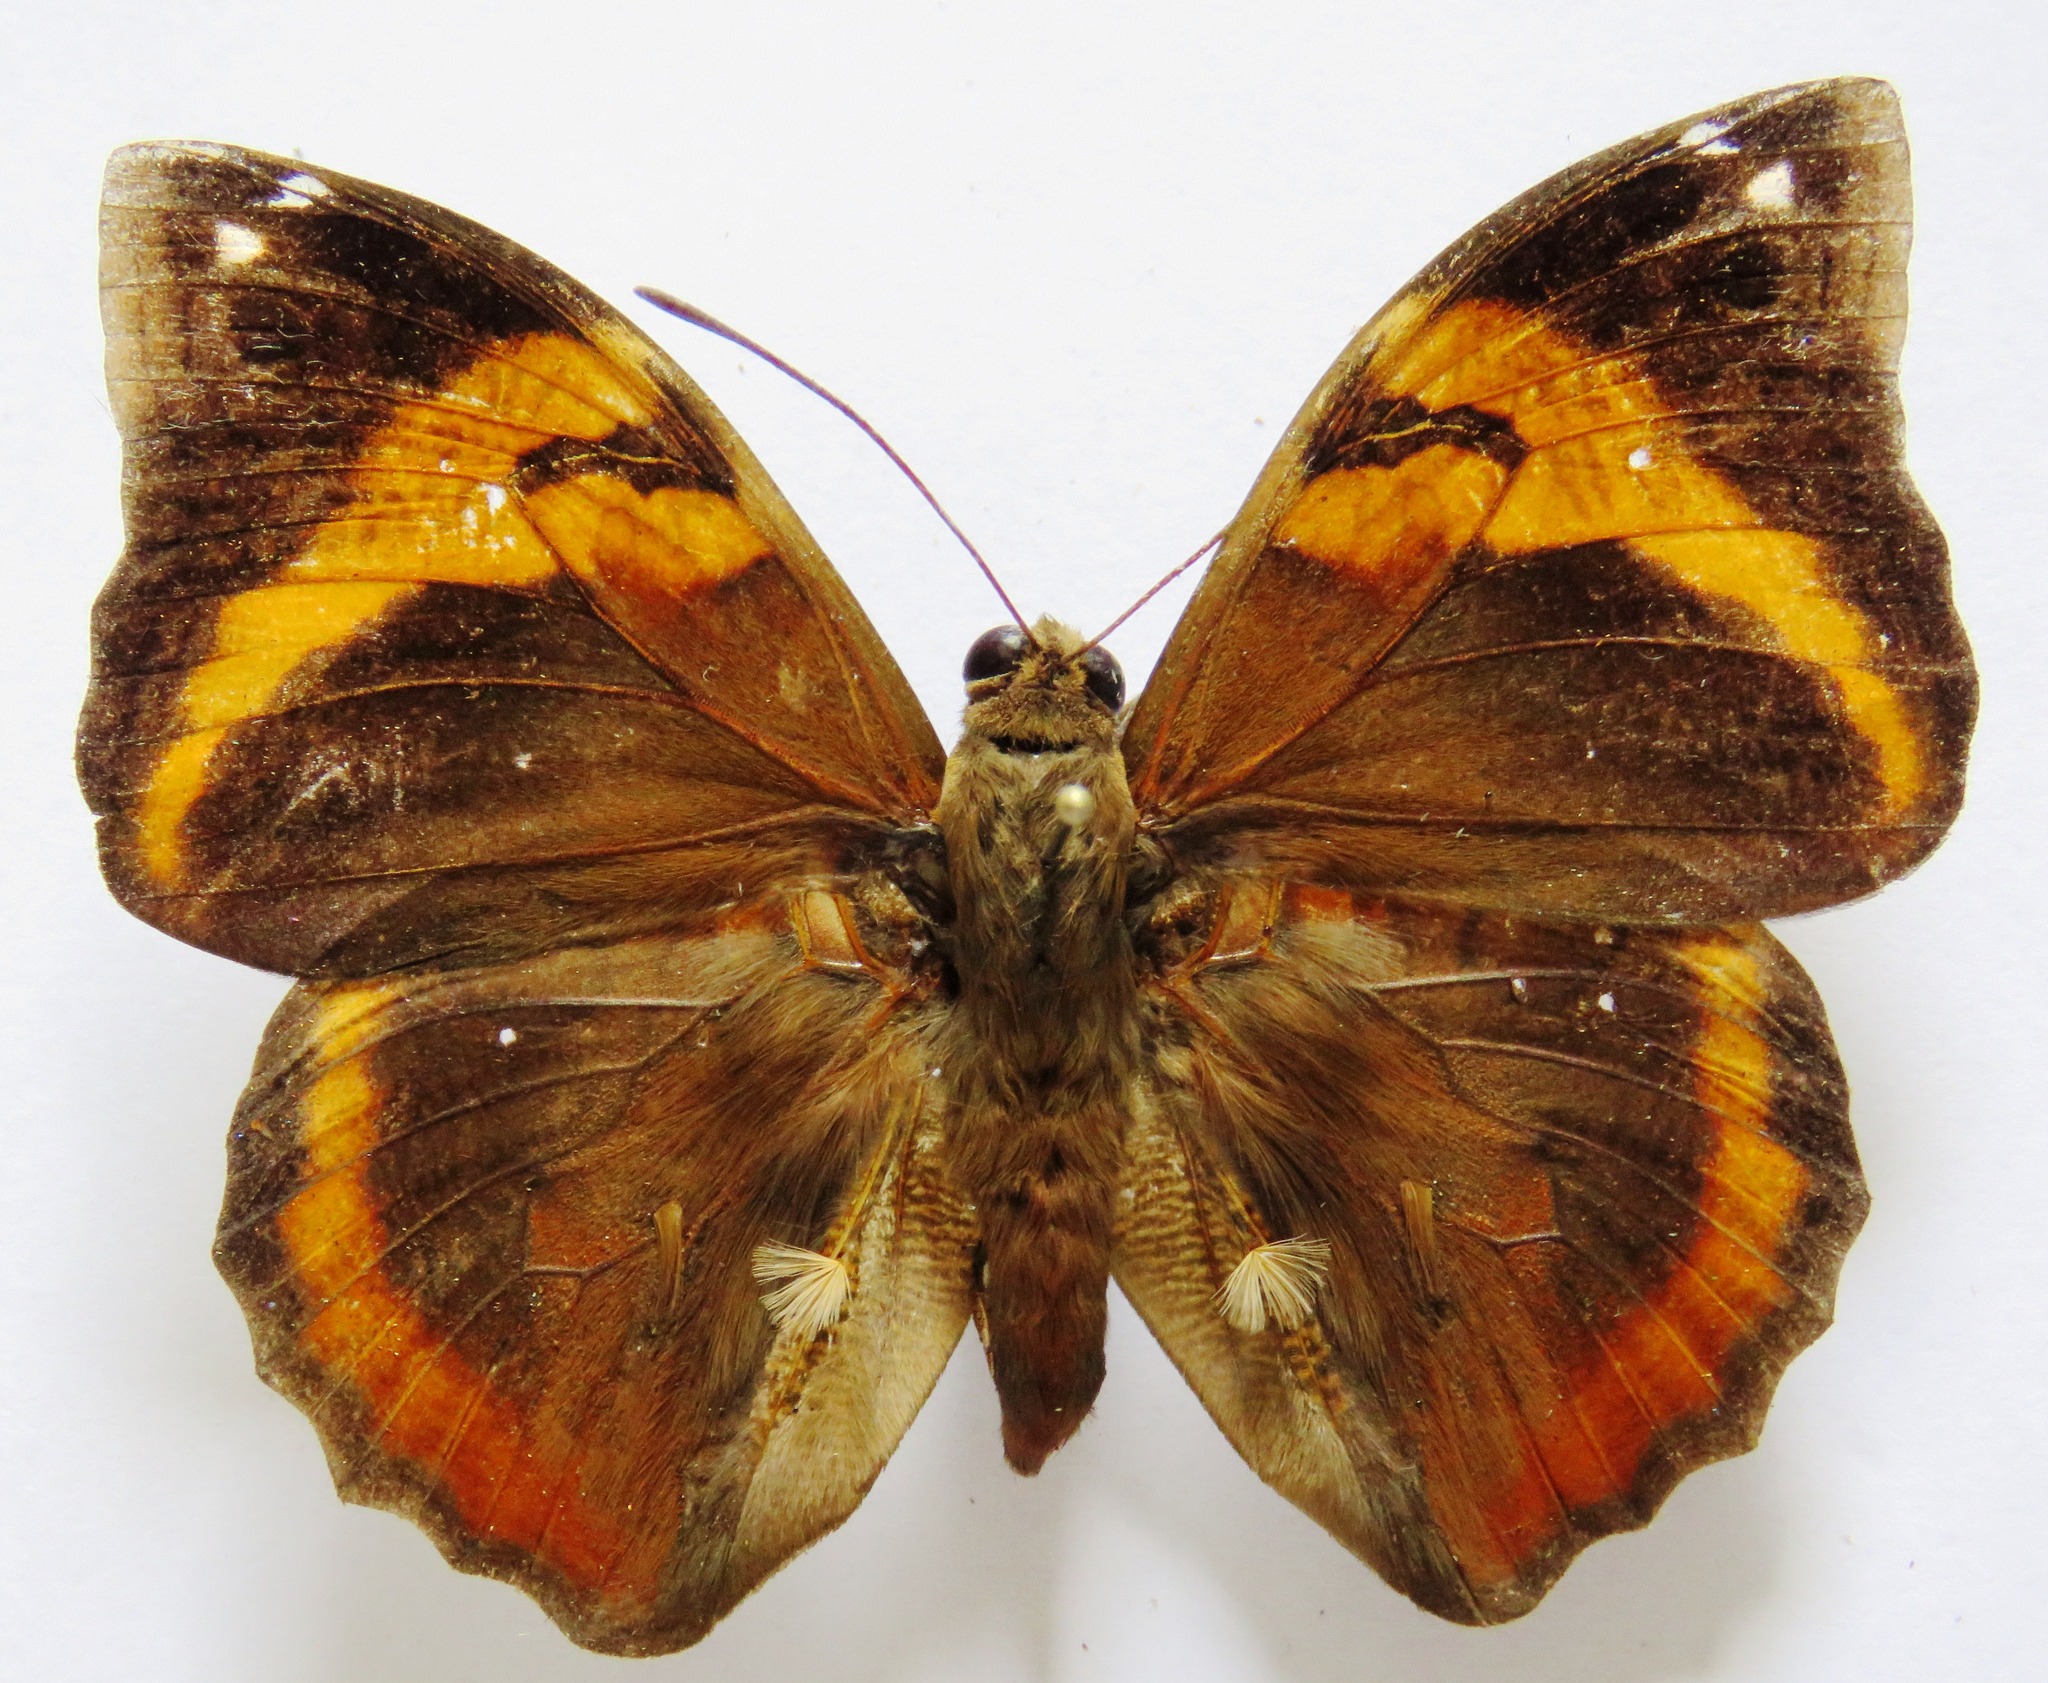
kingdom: Animalia
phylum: Arthropoda
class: Insecta
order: Lepidoptera
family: Nymphalidae
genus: Opsiphanes
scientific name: Opsiphanes fabricii
